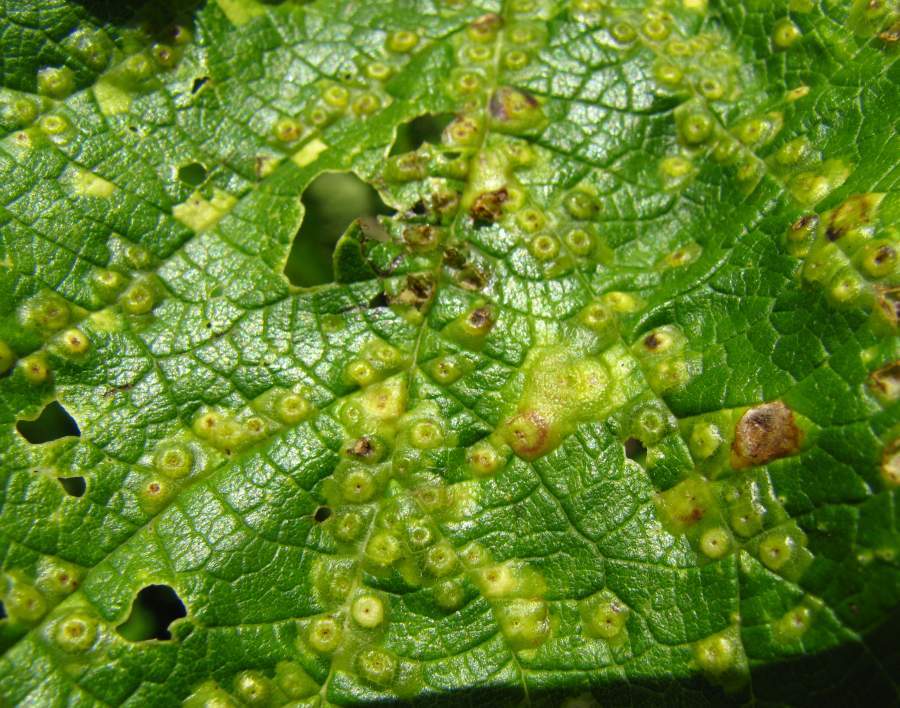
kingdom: Animalia
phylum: Arthropoda
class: Insecta
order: Hemiptera
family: Aphalaridae
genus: Pachypsylla
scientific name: Pachypsylla celtidisvesicula
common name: Hackberry blister gall psyllid
